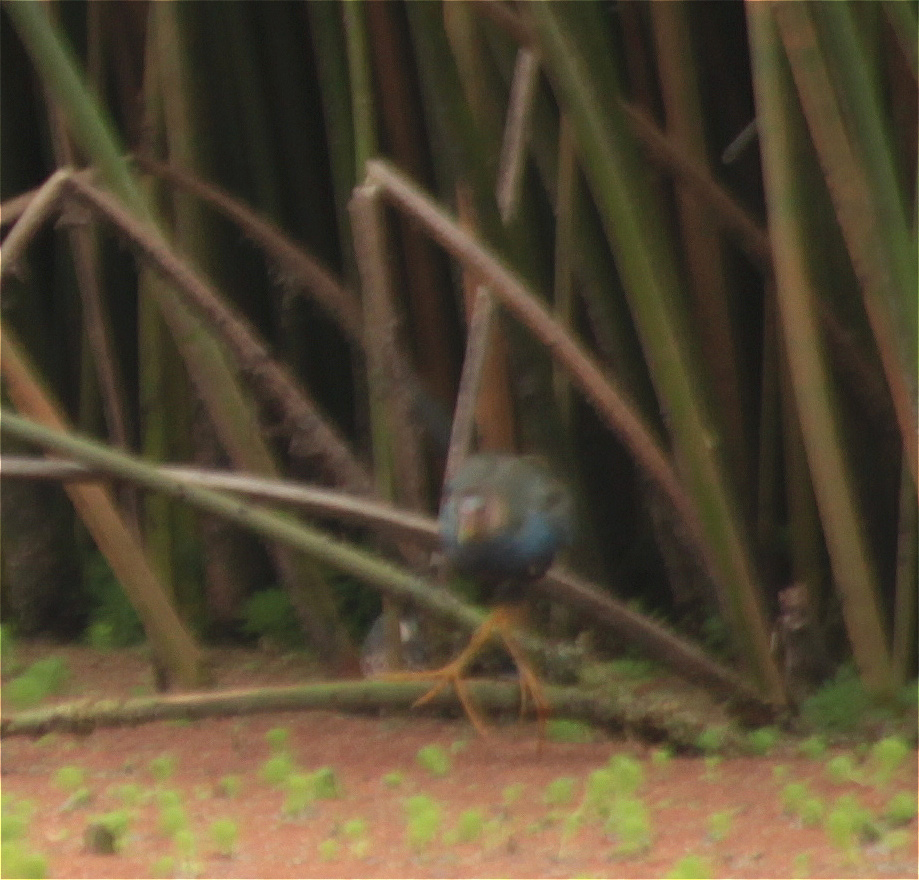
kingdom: Animalia
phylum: Chordata
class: Aves
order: Gruiformes
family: Rallidae
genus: Porphyrio
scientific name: Porphyrio martinica
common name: Purple gallinule
